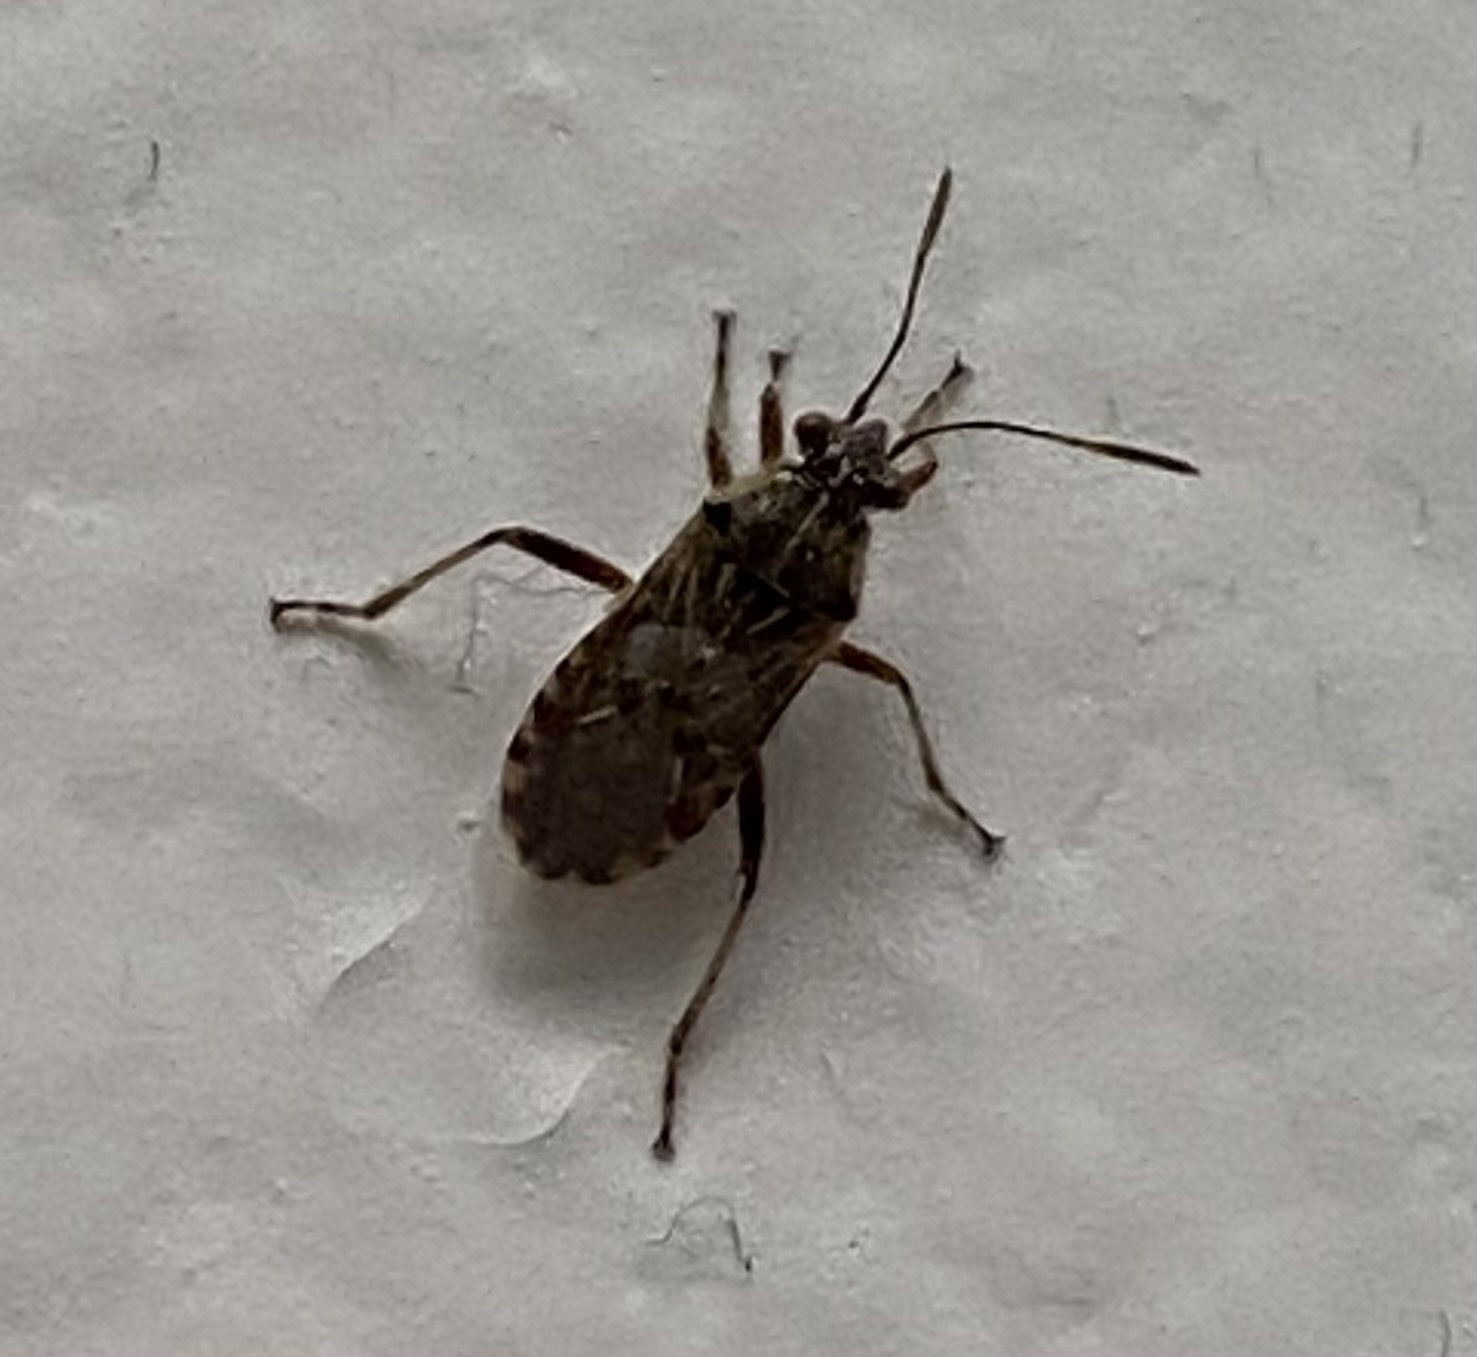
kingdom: Animalia
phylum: Arthropoda
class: Insecta
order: Hemiptera
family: Rhopalidae
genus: Liorhyssus
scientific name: Liorhyssus hyalinus
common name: Scentless plant bug
